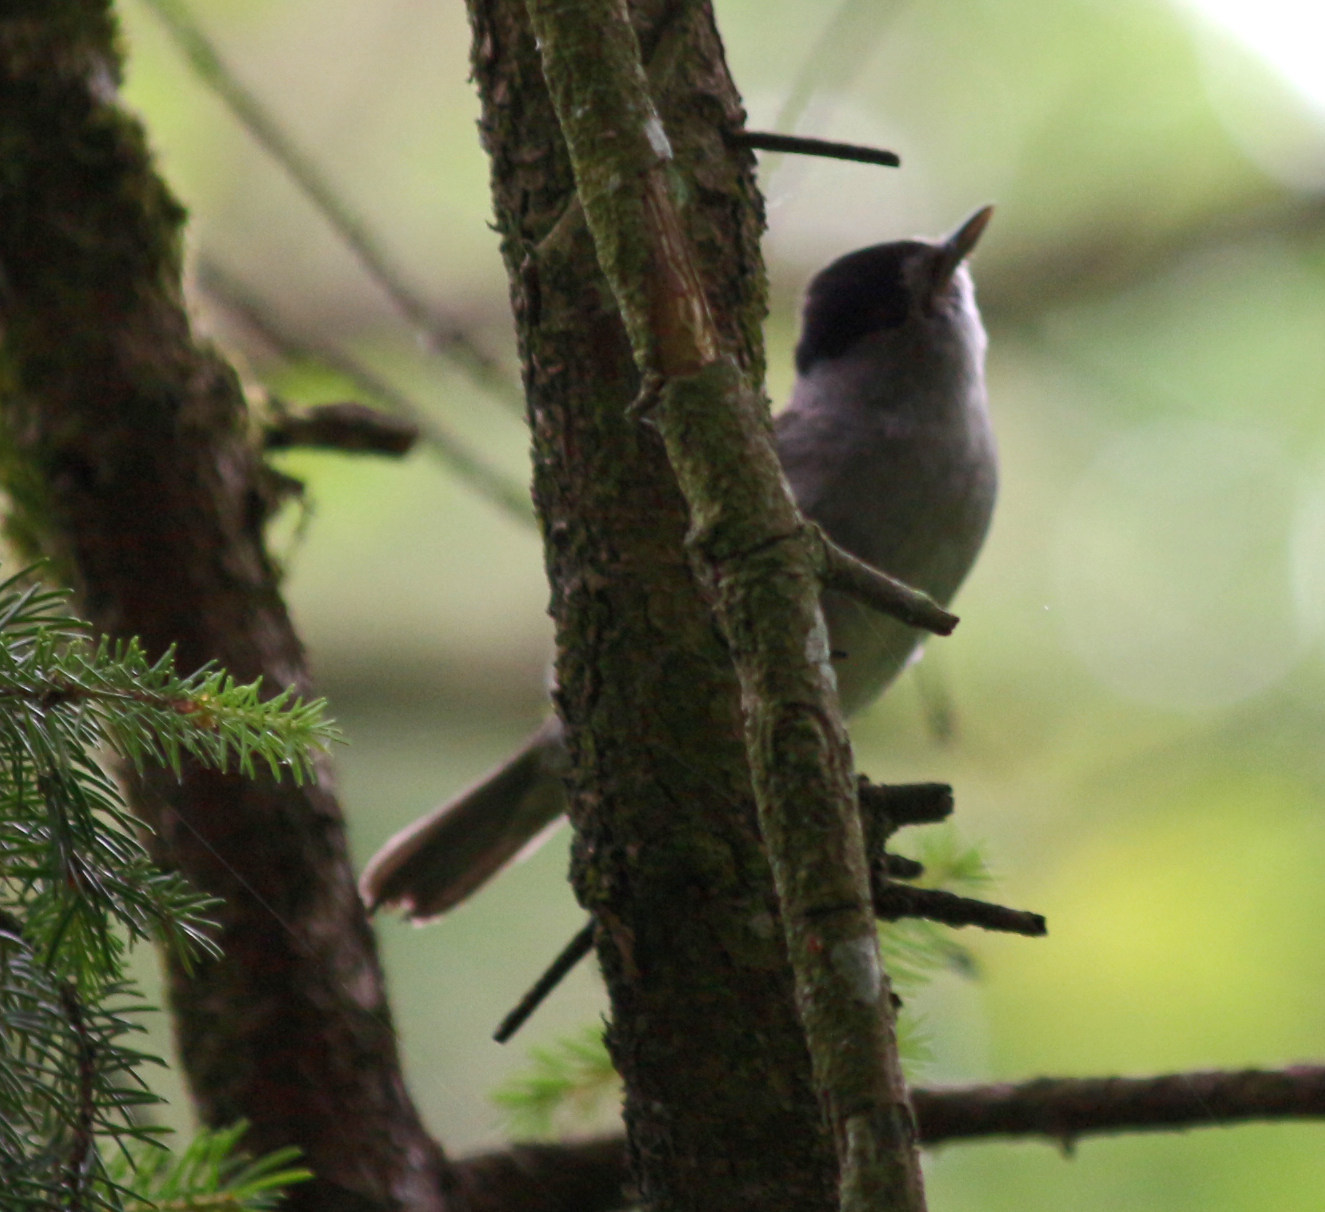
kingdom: Animalia
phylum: Chordata
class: Aves
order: Passeriformes
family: Sylviidae
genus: Sylvia
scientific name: Sylvia atricapilla
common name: Eurasian blackcap
